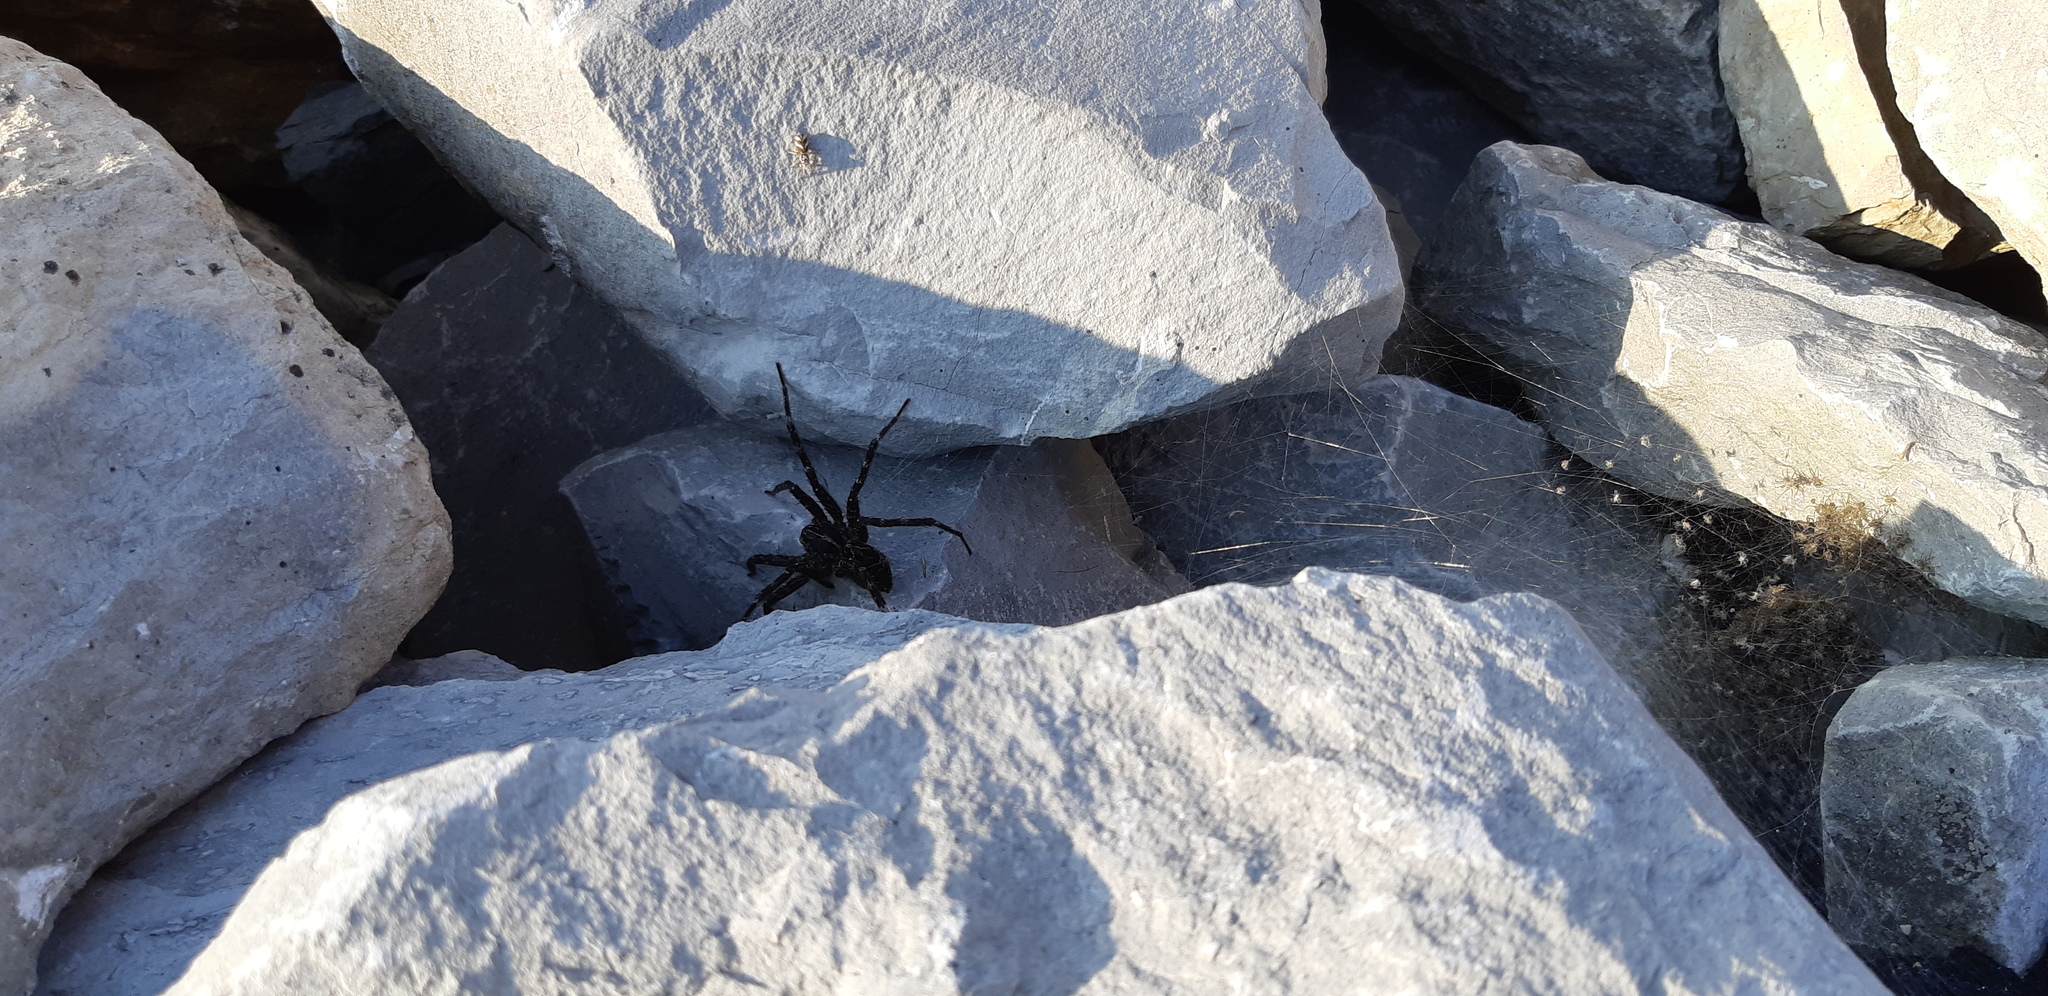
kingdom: Animalia
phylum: Arthropoda
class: Arachnida
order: Araneae
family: Pisauridae
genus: Dolomedes
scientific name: Dolomedes scriptus
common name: Striped fishing spider
